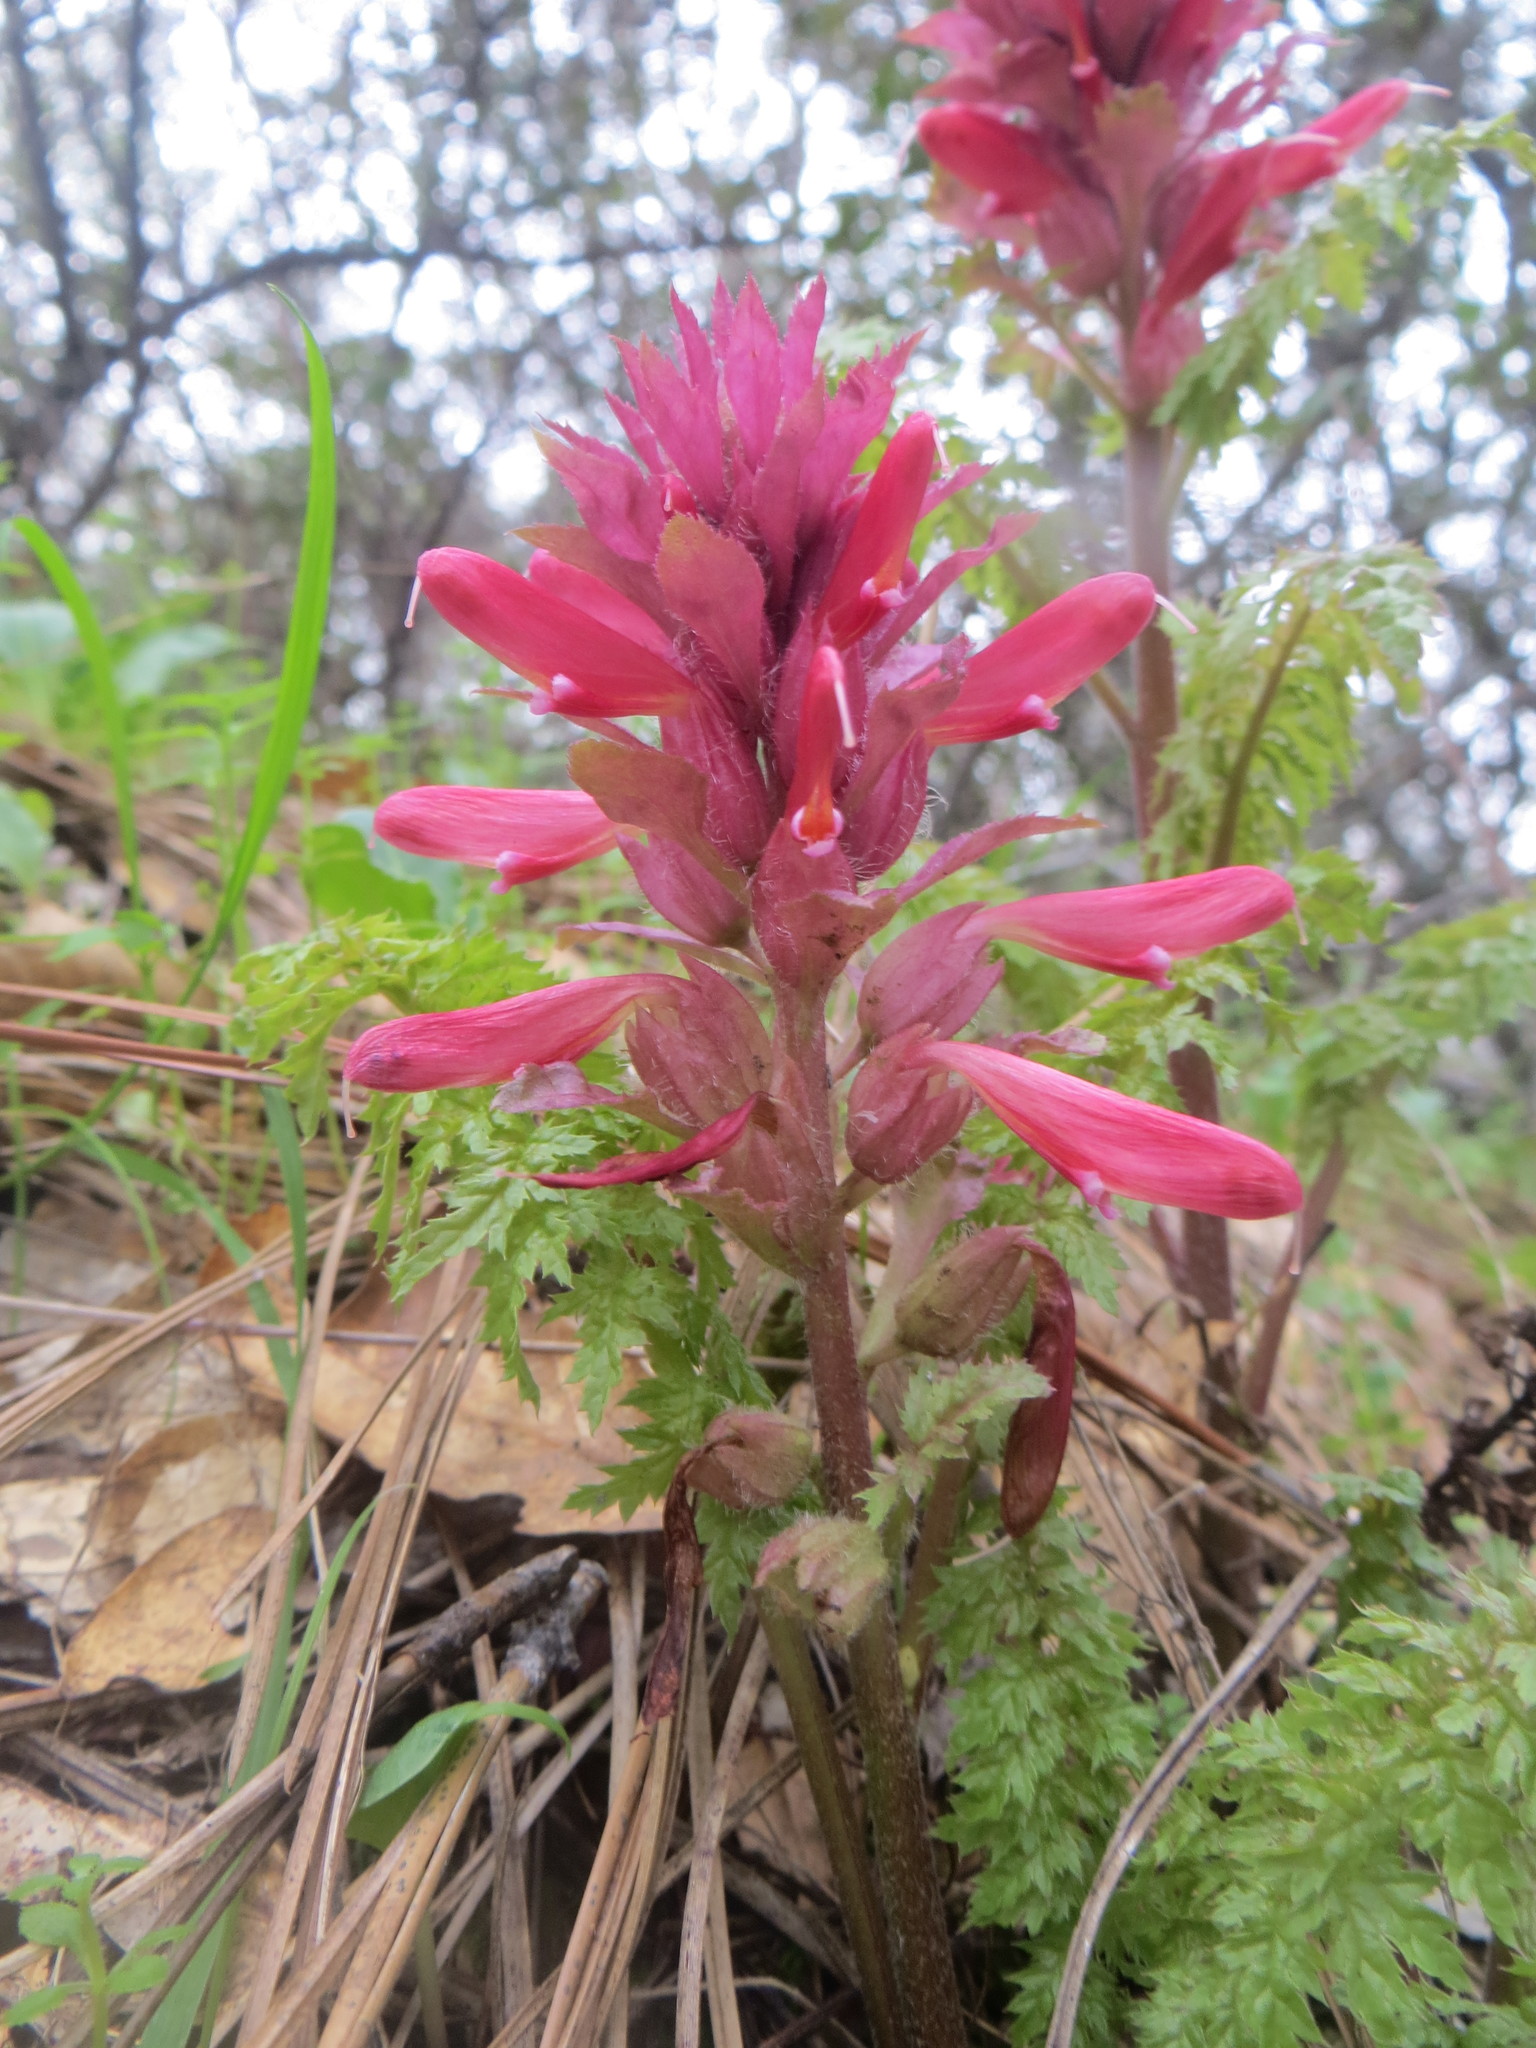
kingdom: Plantae
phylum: Tracheophyta
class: Magnoliopsida
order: Lamiales
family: Orobanchaceae
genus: Pedicularis
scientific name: Pedicularis densiflora
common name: Indian warrior
